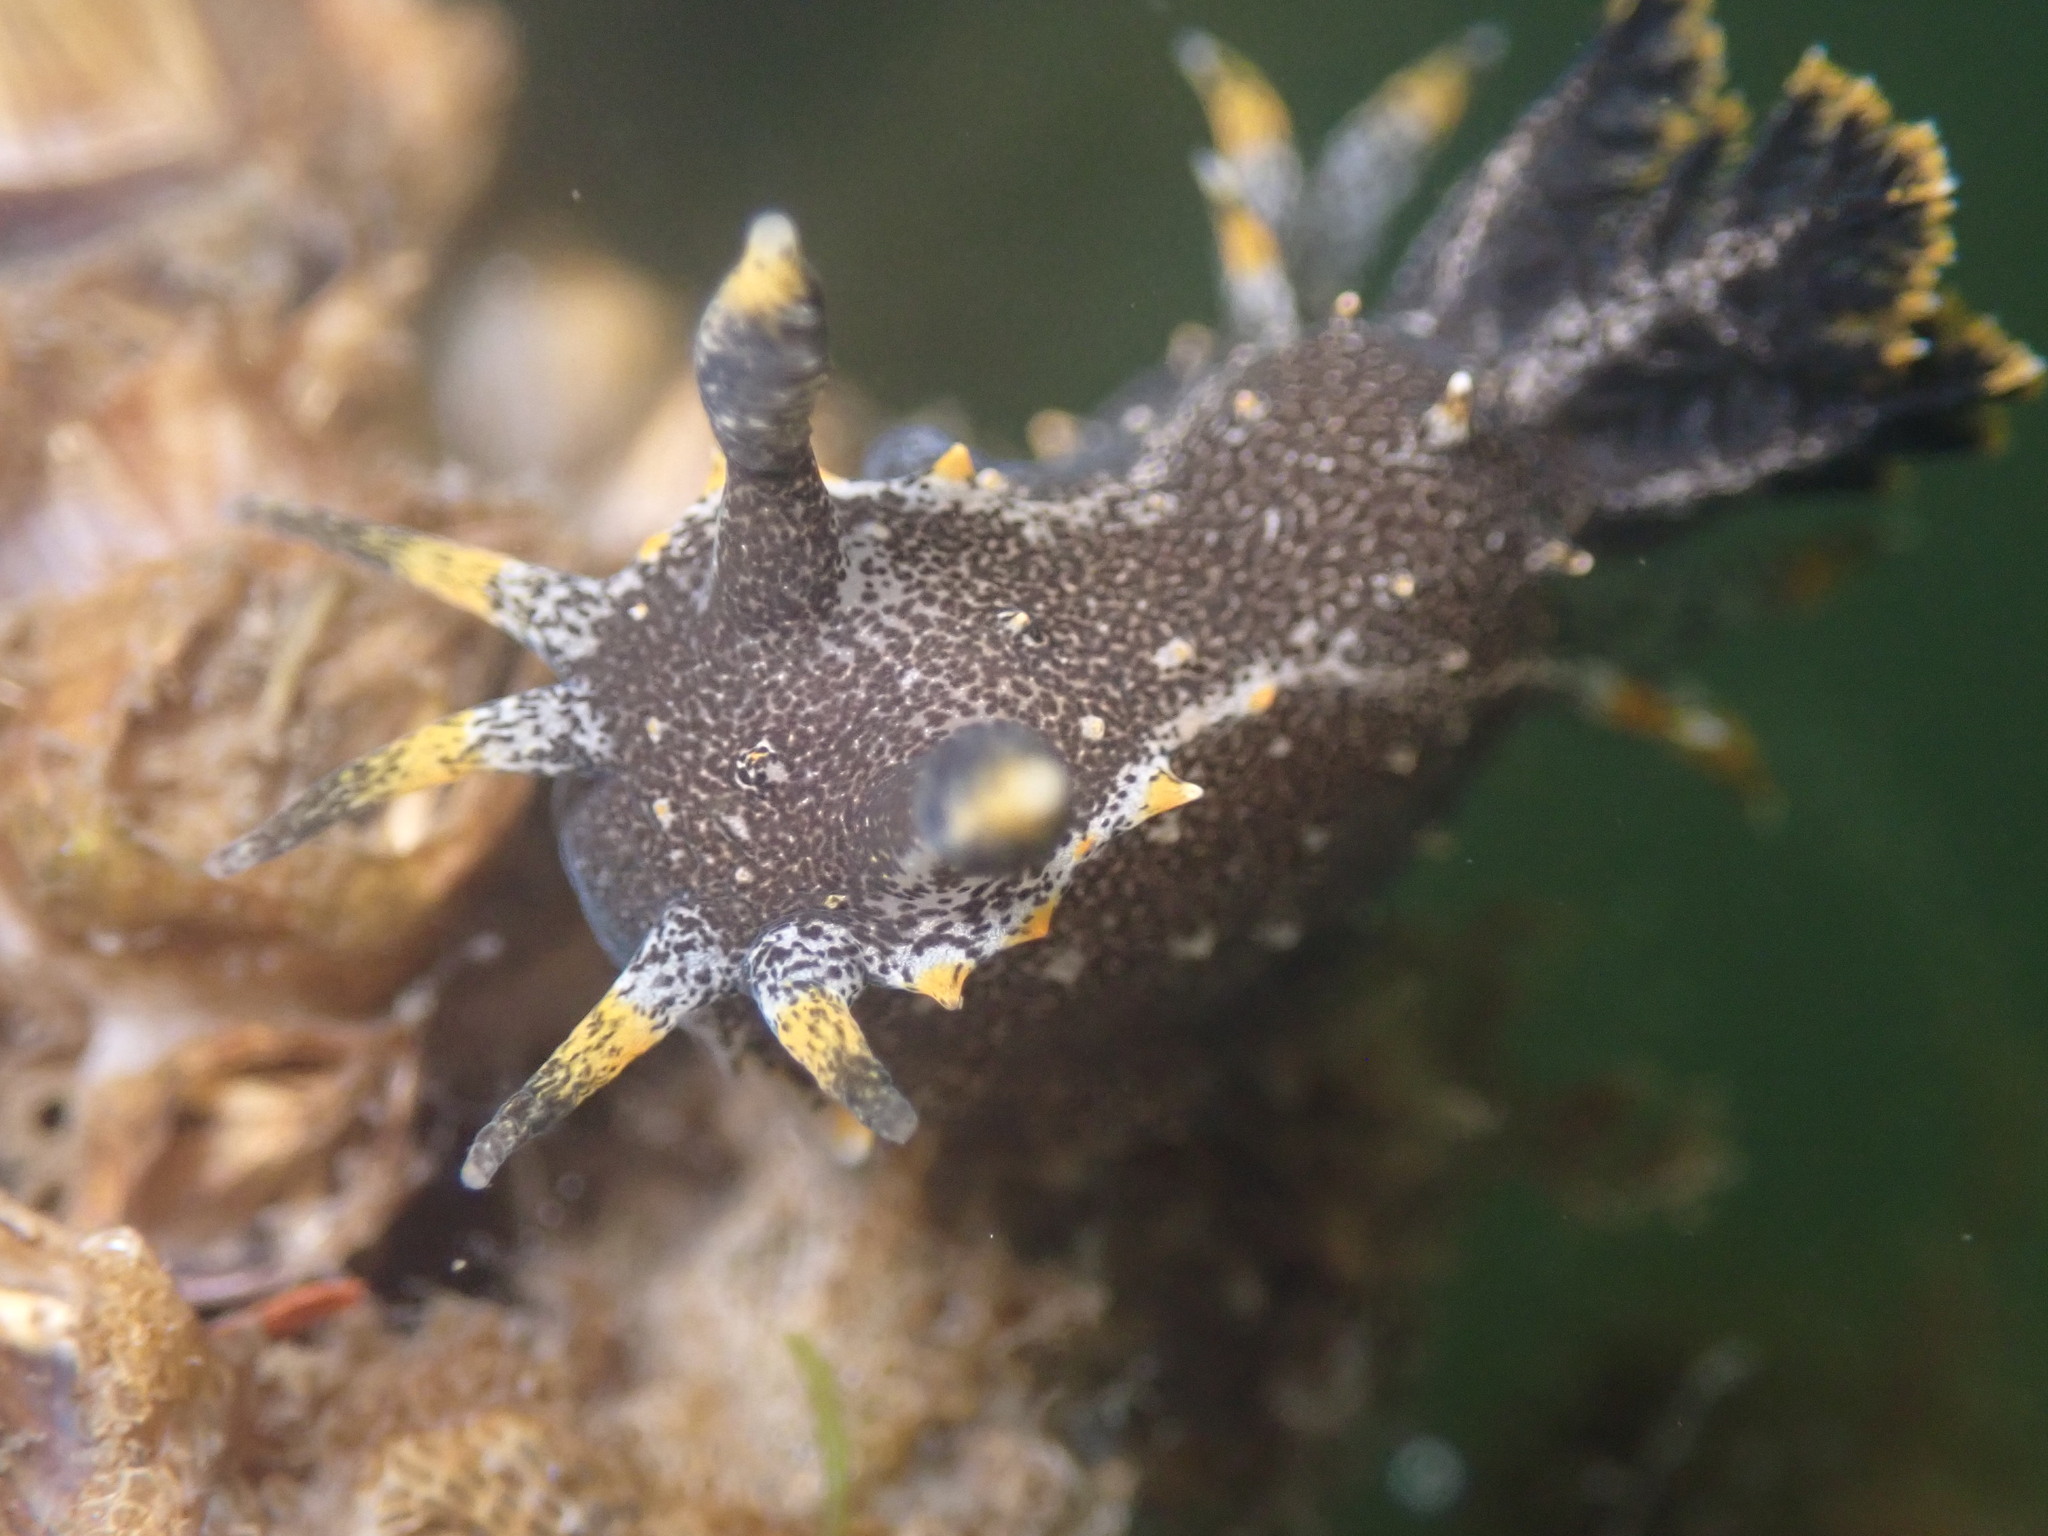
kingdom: Animalia
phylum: Mollusca
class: Gastropoda
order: Nudibranchia
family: Polyceridae
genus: Polycera
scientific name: Polycera hedgpethi
